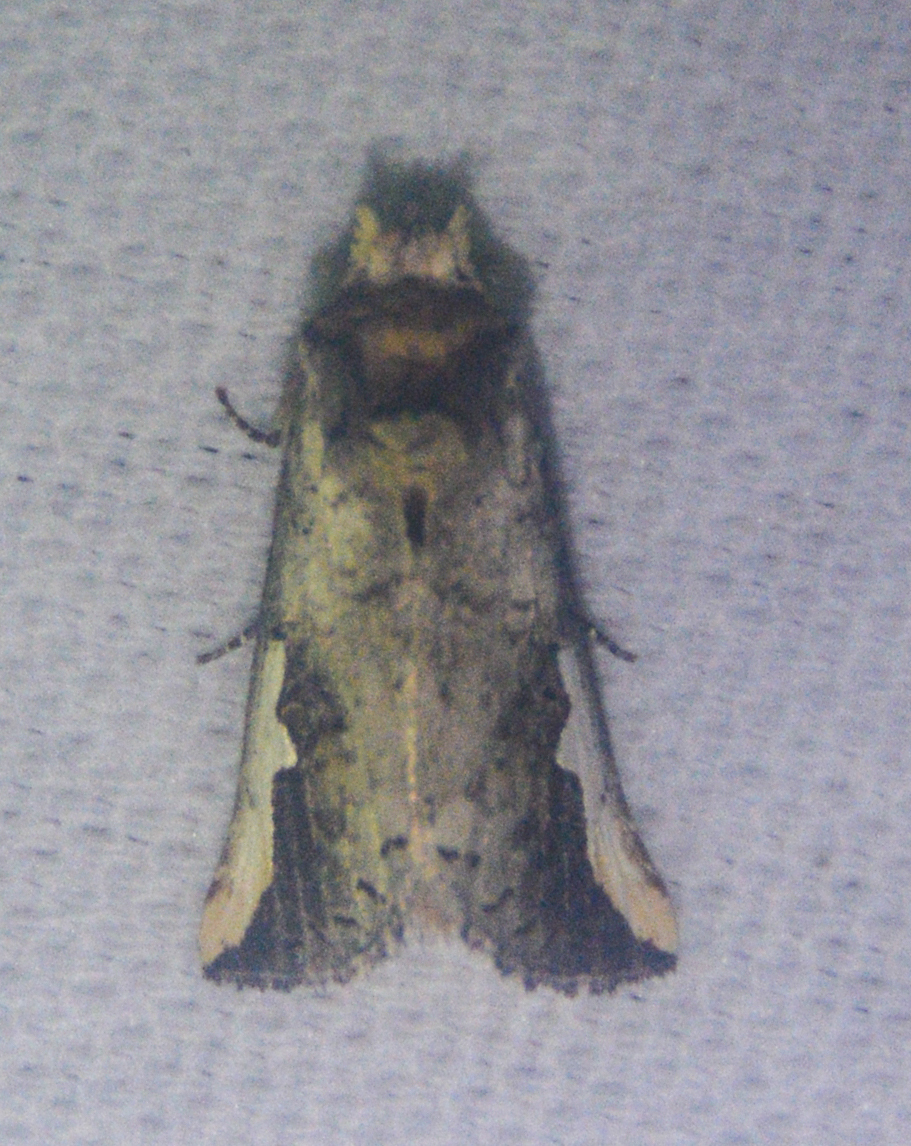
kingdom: Animalia
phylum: Arthropoda
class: Insecta
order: Lepidoptera
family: Notodontidae
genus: Symmerista
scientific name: Symmerista albifrons
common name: White-headed prominent
